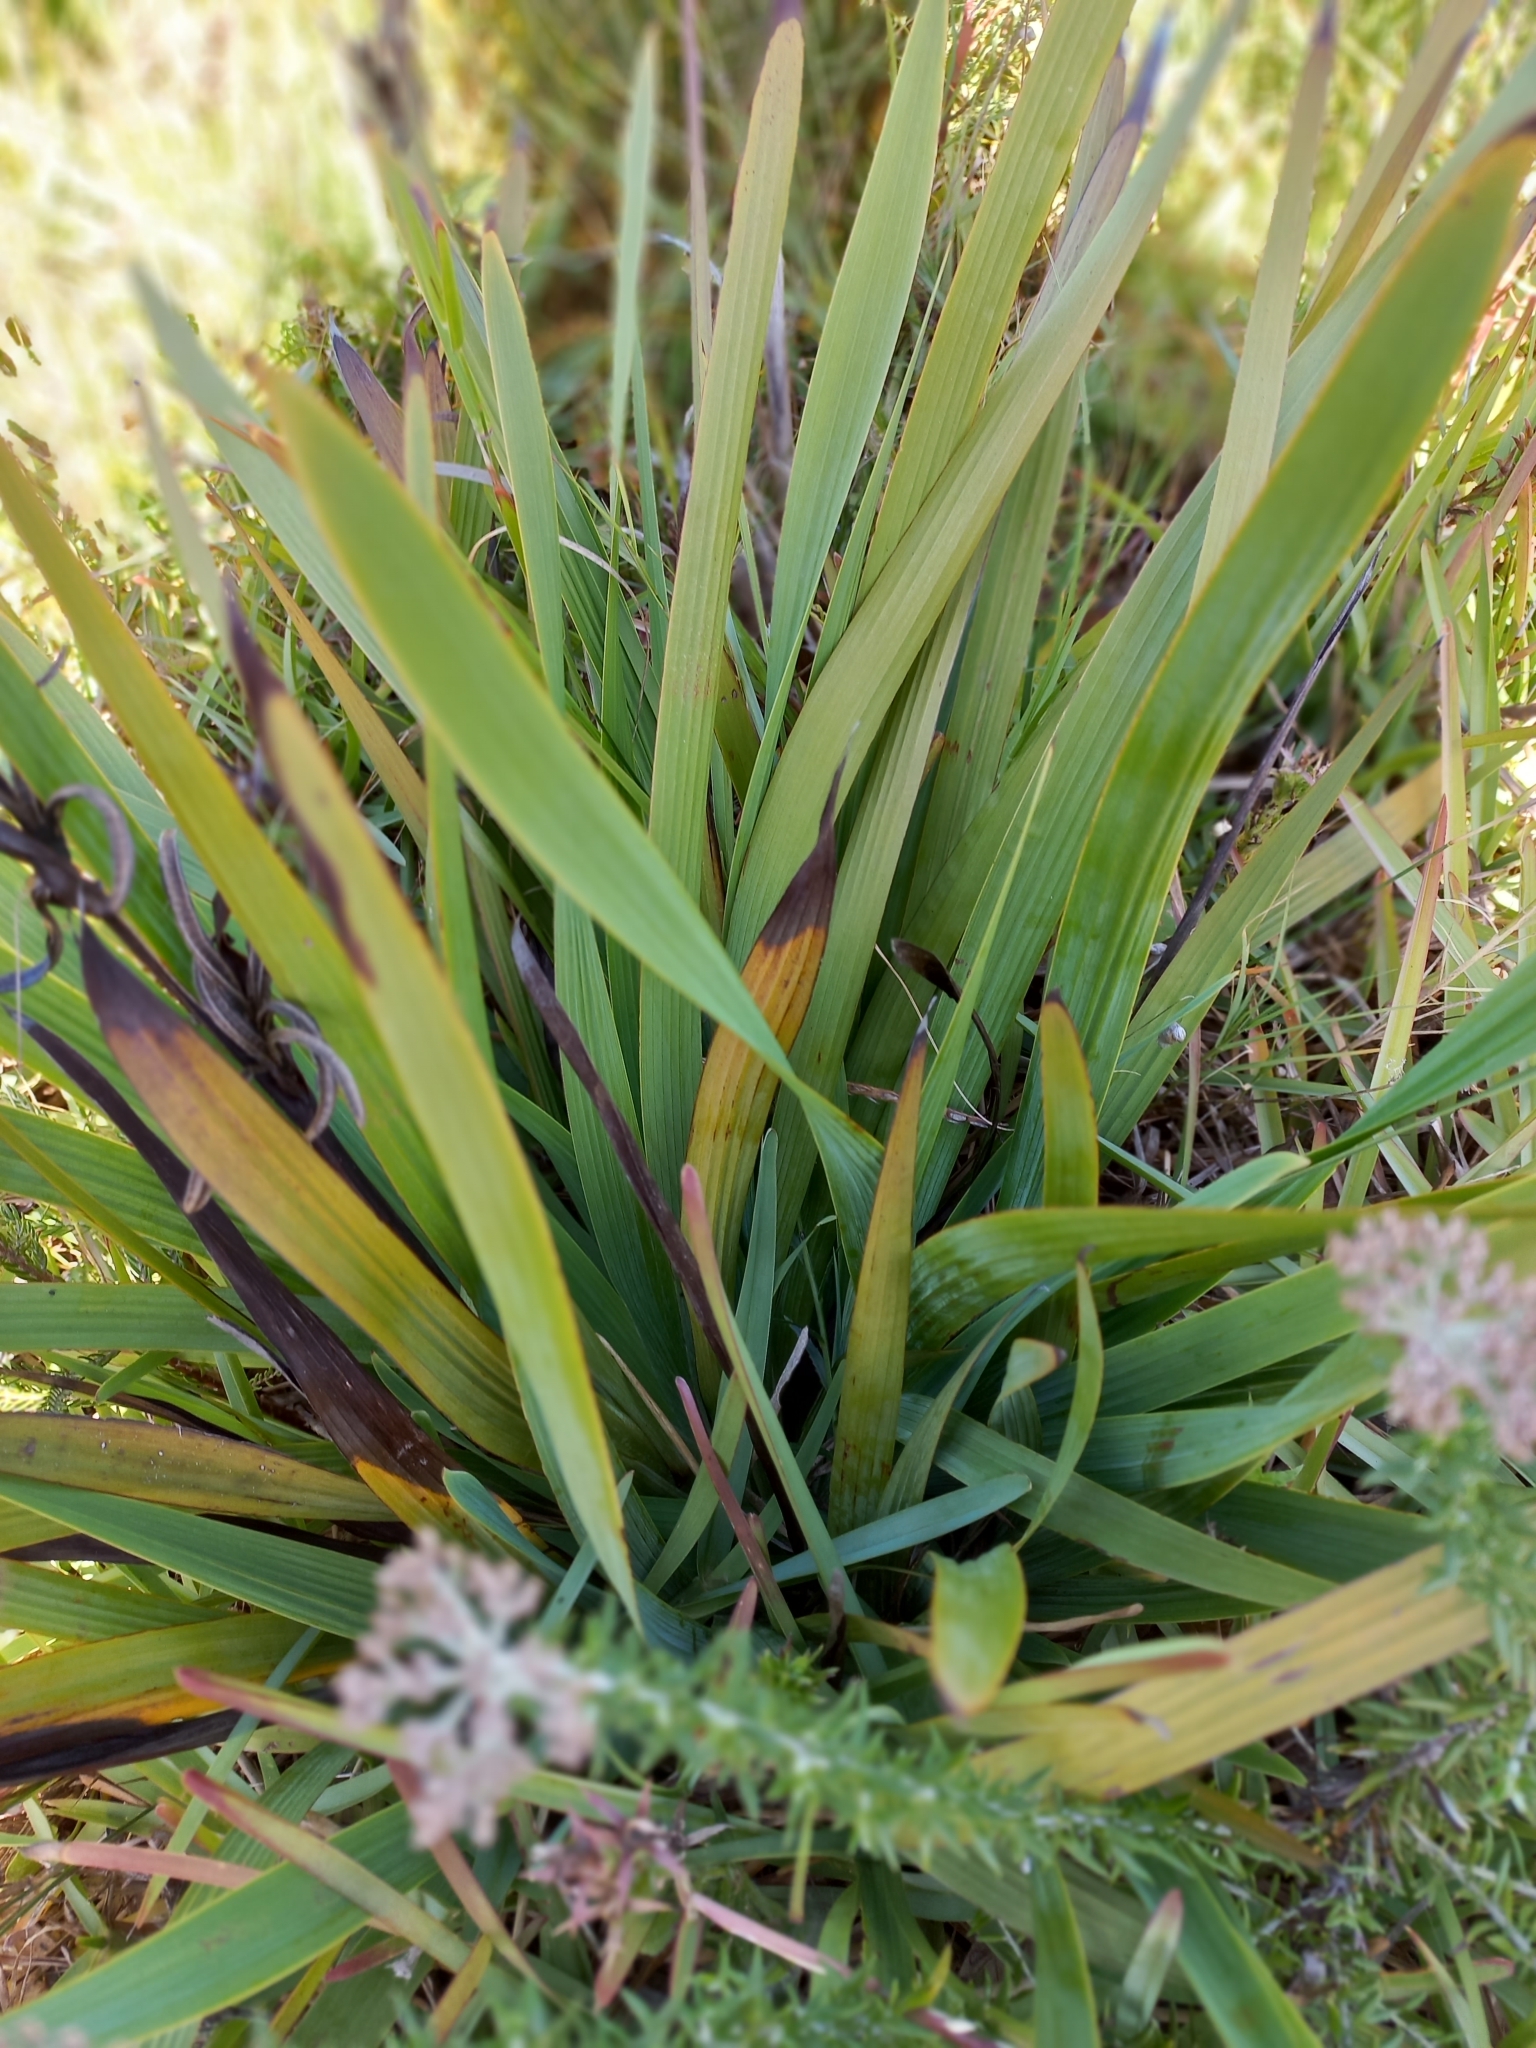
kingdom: Plantae
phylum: Tracheophyta
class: Liliopsida
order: Asparagales
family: Iridaceae
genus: Aristea
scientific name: Aristea capitata
